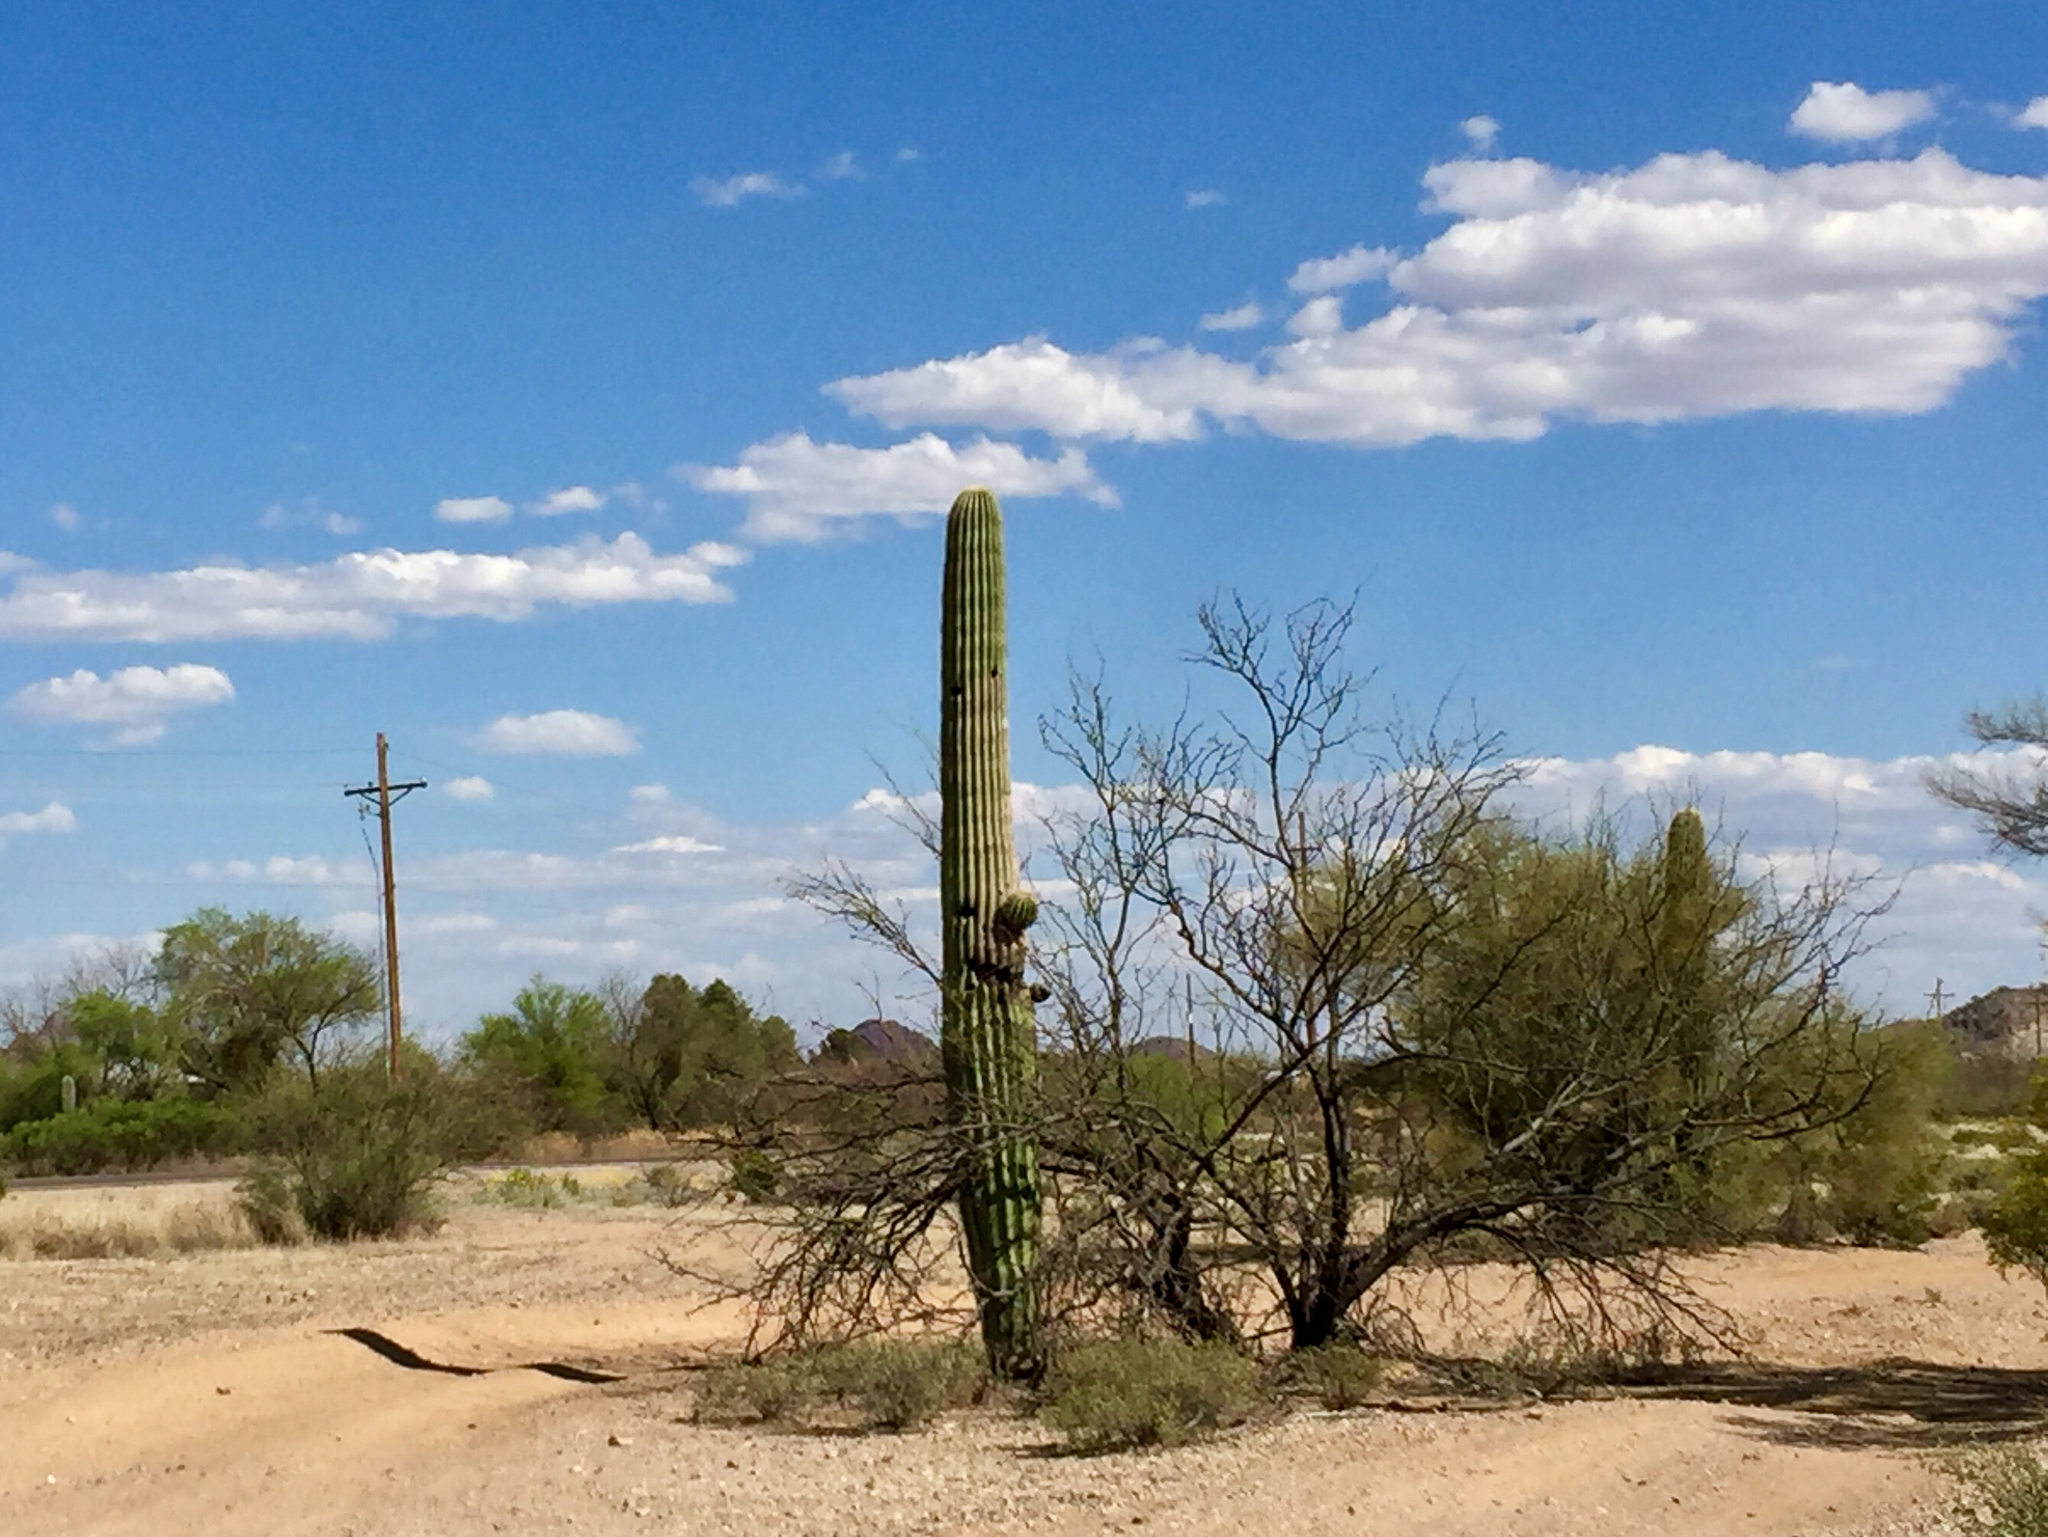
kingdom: Plantae
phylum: Tracheophyta
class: Magnoliopsida
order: Caryophyllales
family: Cactaceae
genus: Carnegiea
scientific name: Carnegiea gigantea
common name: Saguaro
